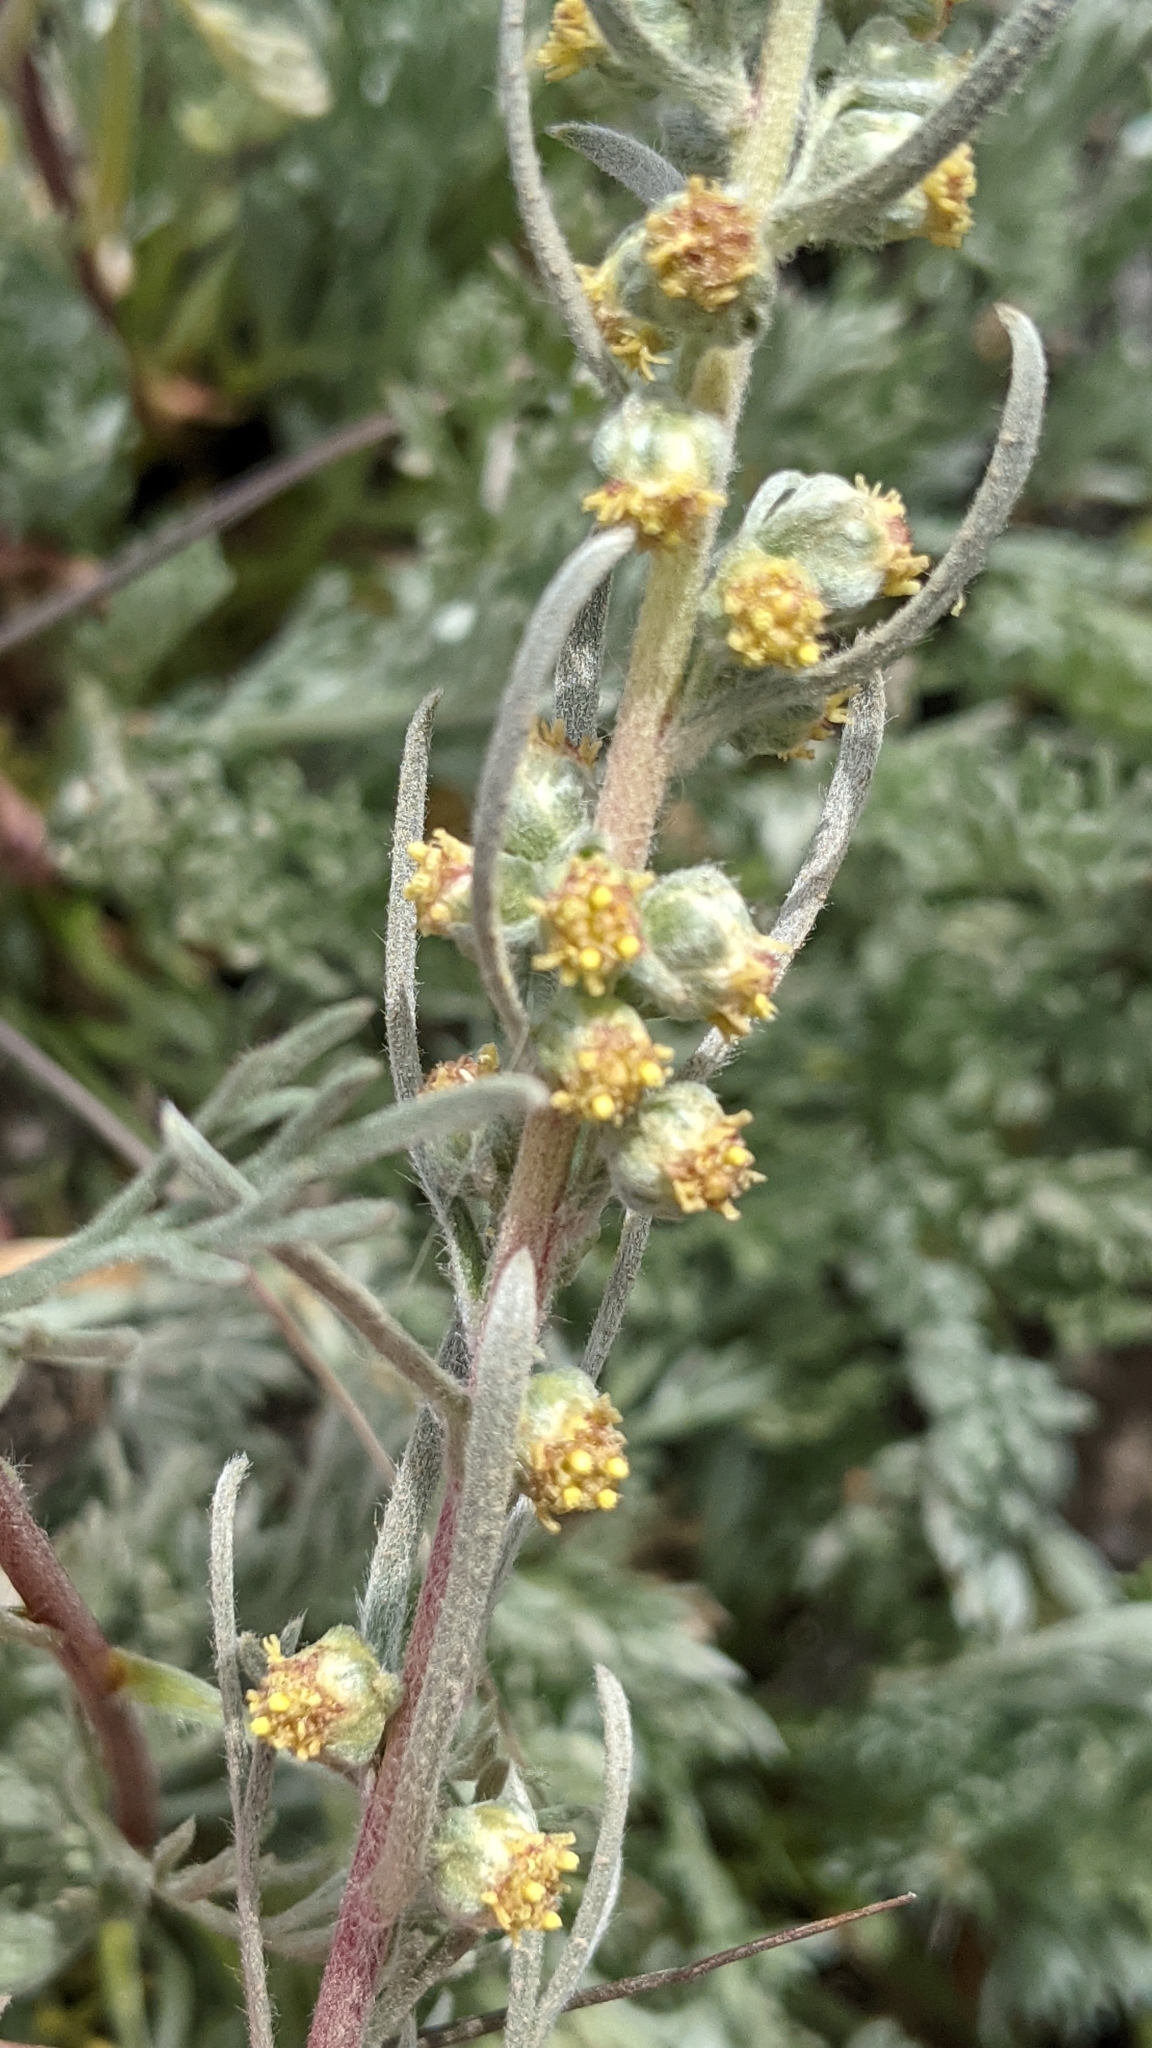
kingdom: Plantae
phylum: Tracheophyta
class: Magnoliopsida
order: Asterales
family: Asteraceae
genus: Artemisia
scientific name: Artemisia campestris
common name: Field wormwood
